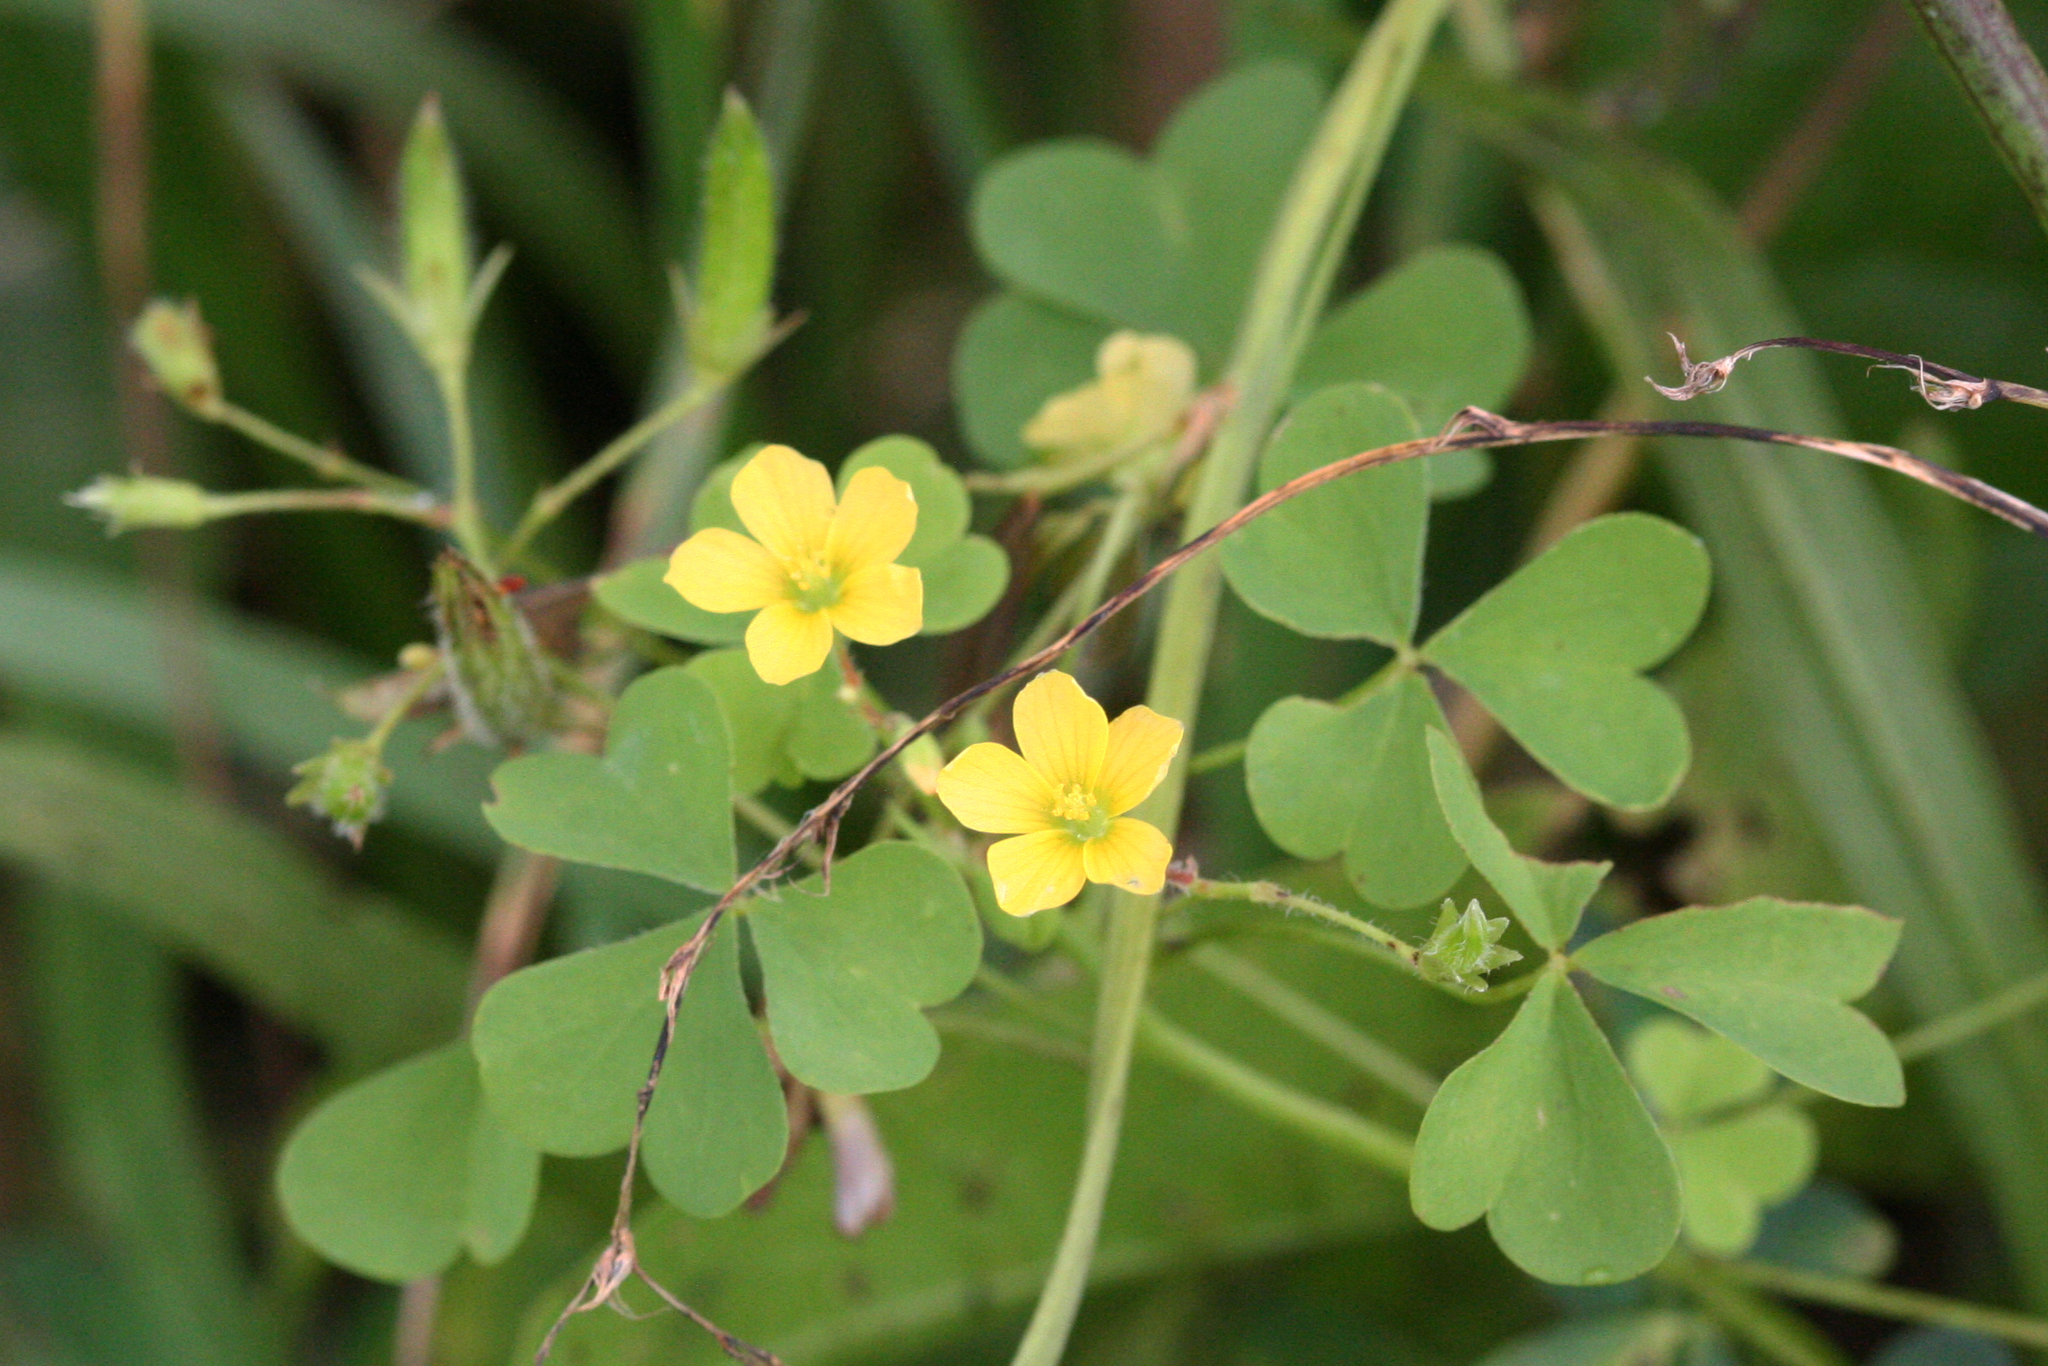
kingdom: Plantae
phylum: Tracheophyta
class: Magnoliopsida
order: Oxalidales
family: Oxalidaceae
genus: Oxalis
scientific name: Oxalis stricta
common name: Upright yellow-sorrel
